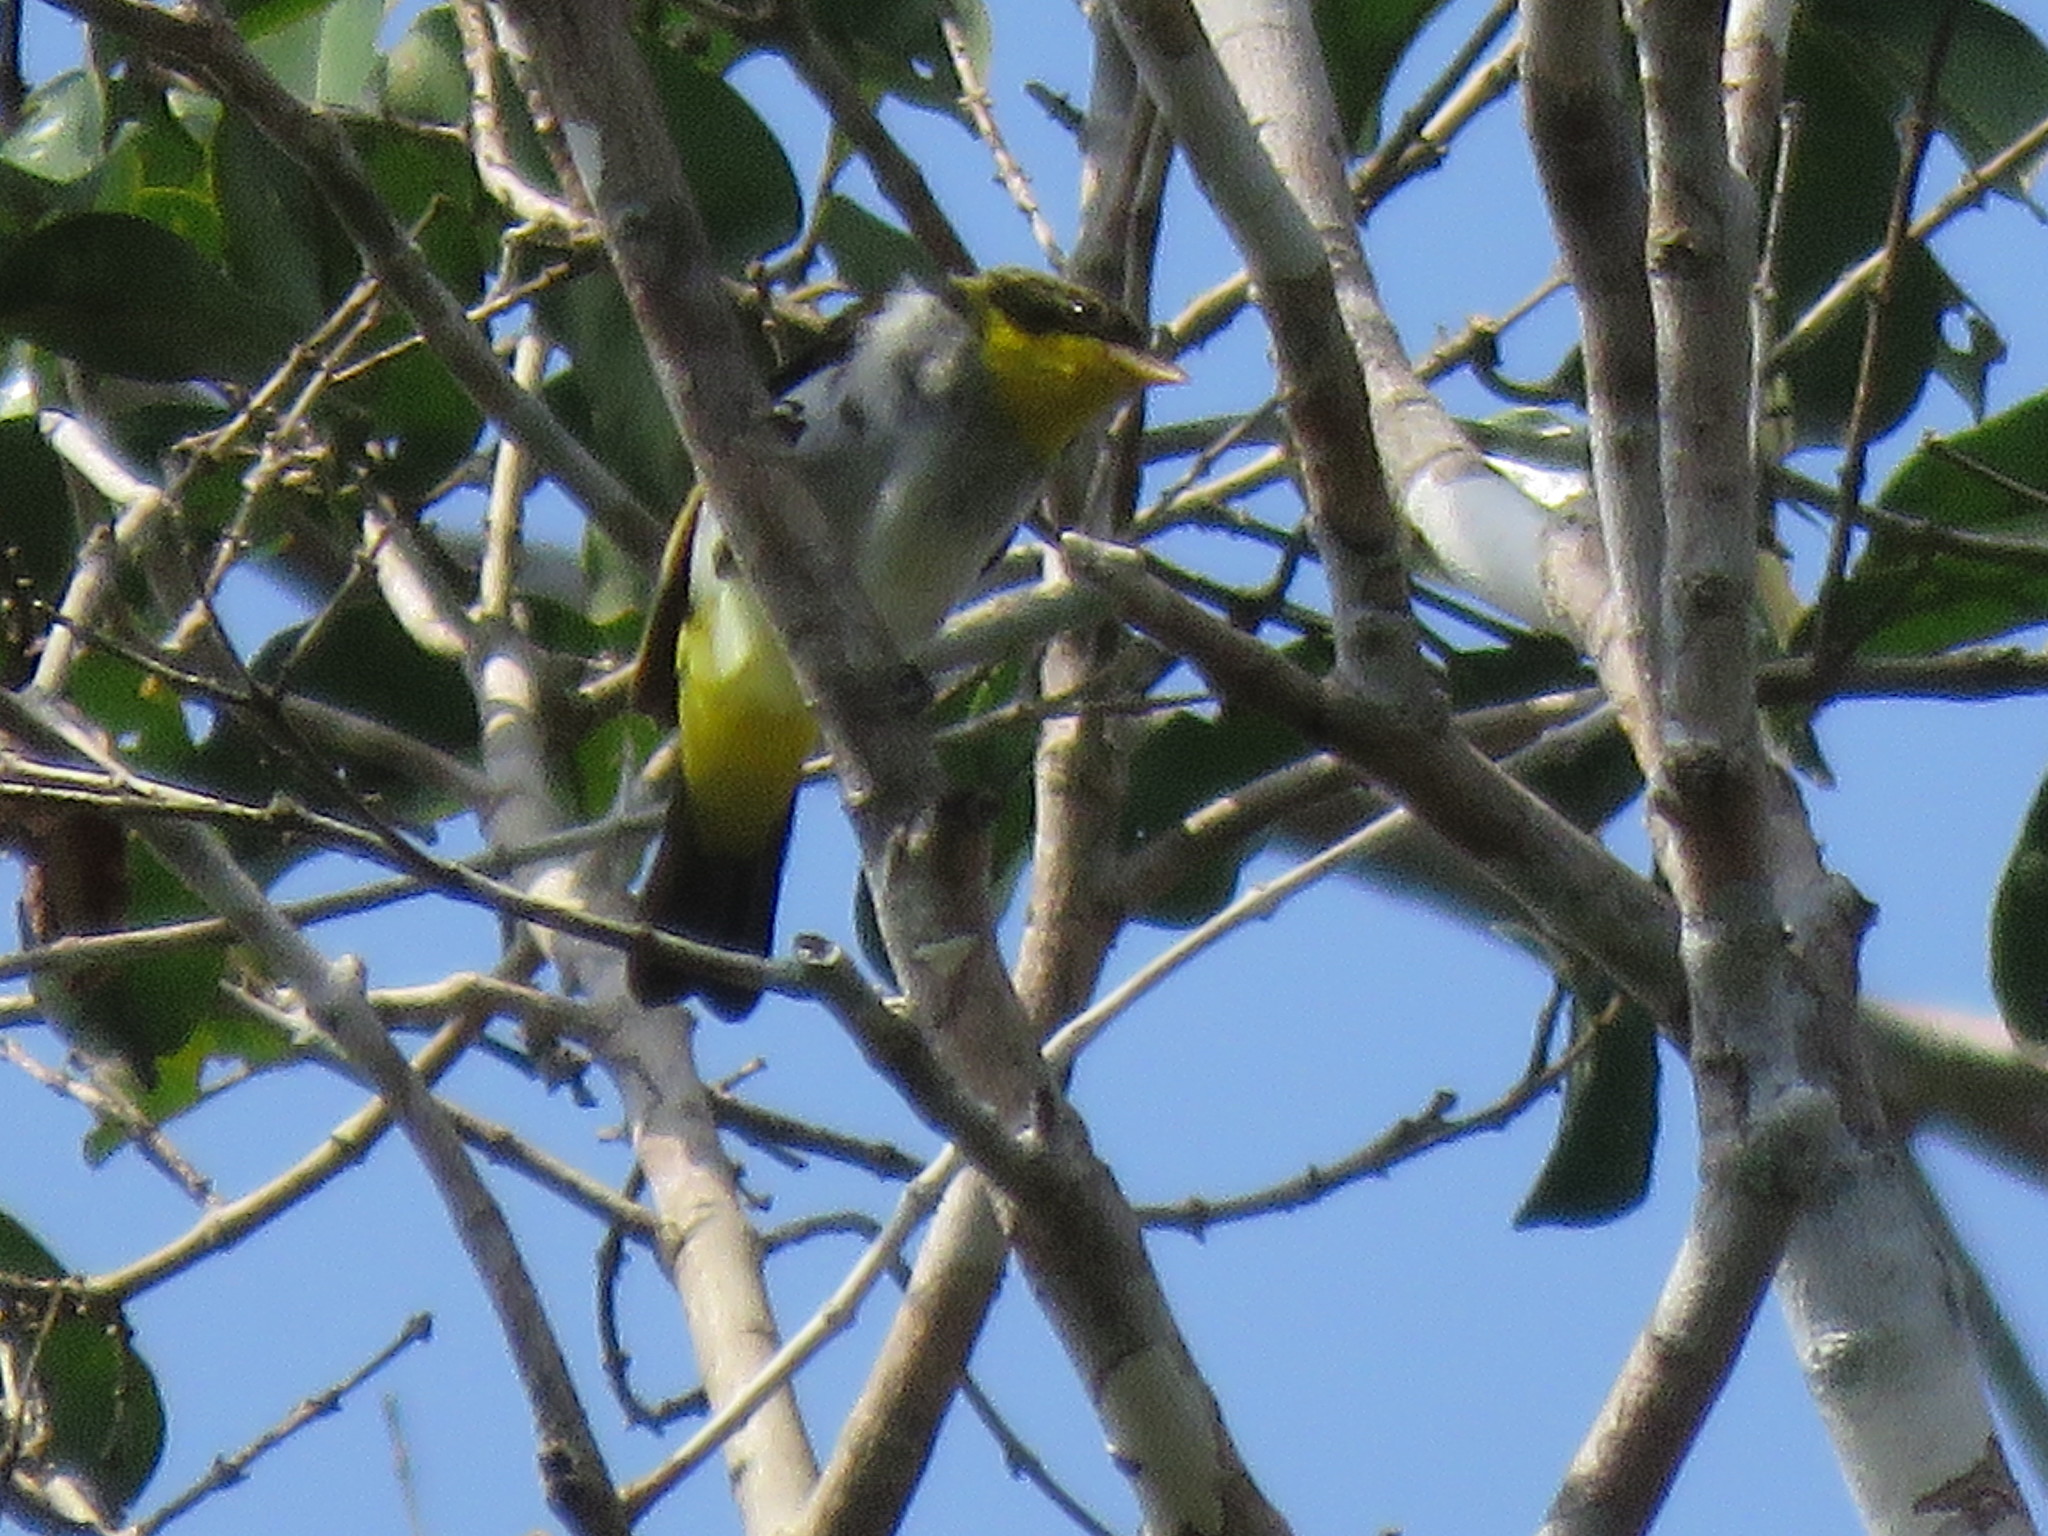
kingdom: Animalia
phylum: Chordata
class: Aves
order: Passeriformes
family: Thraupidae
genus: Hemithraupis
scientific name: Hemithraupis flavicollis
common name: Yellow-backed tanager
